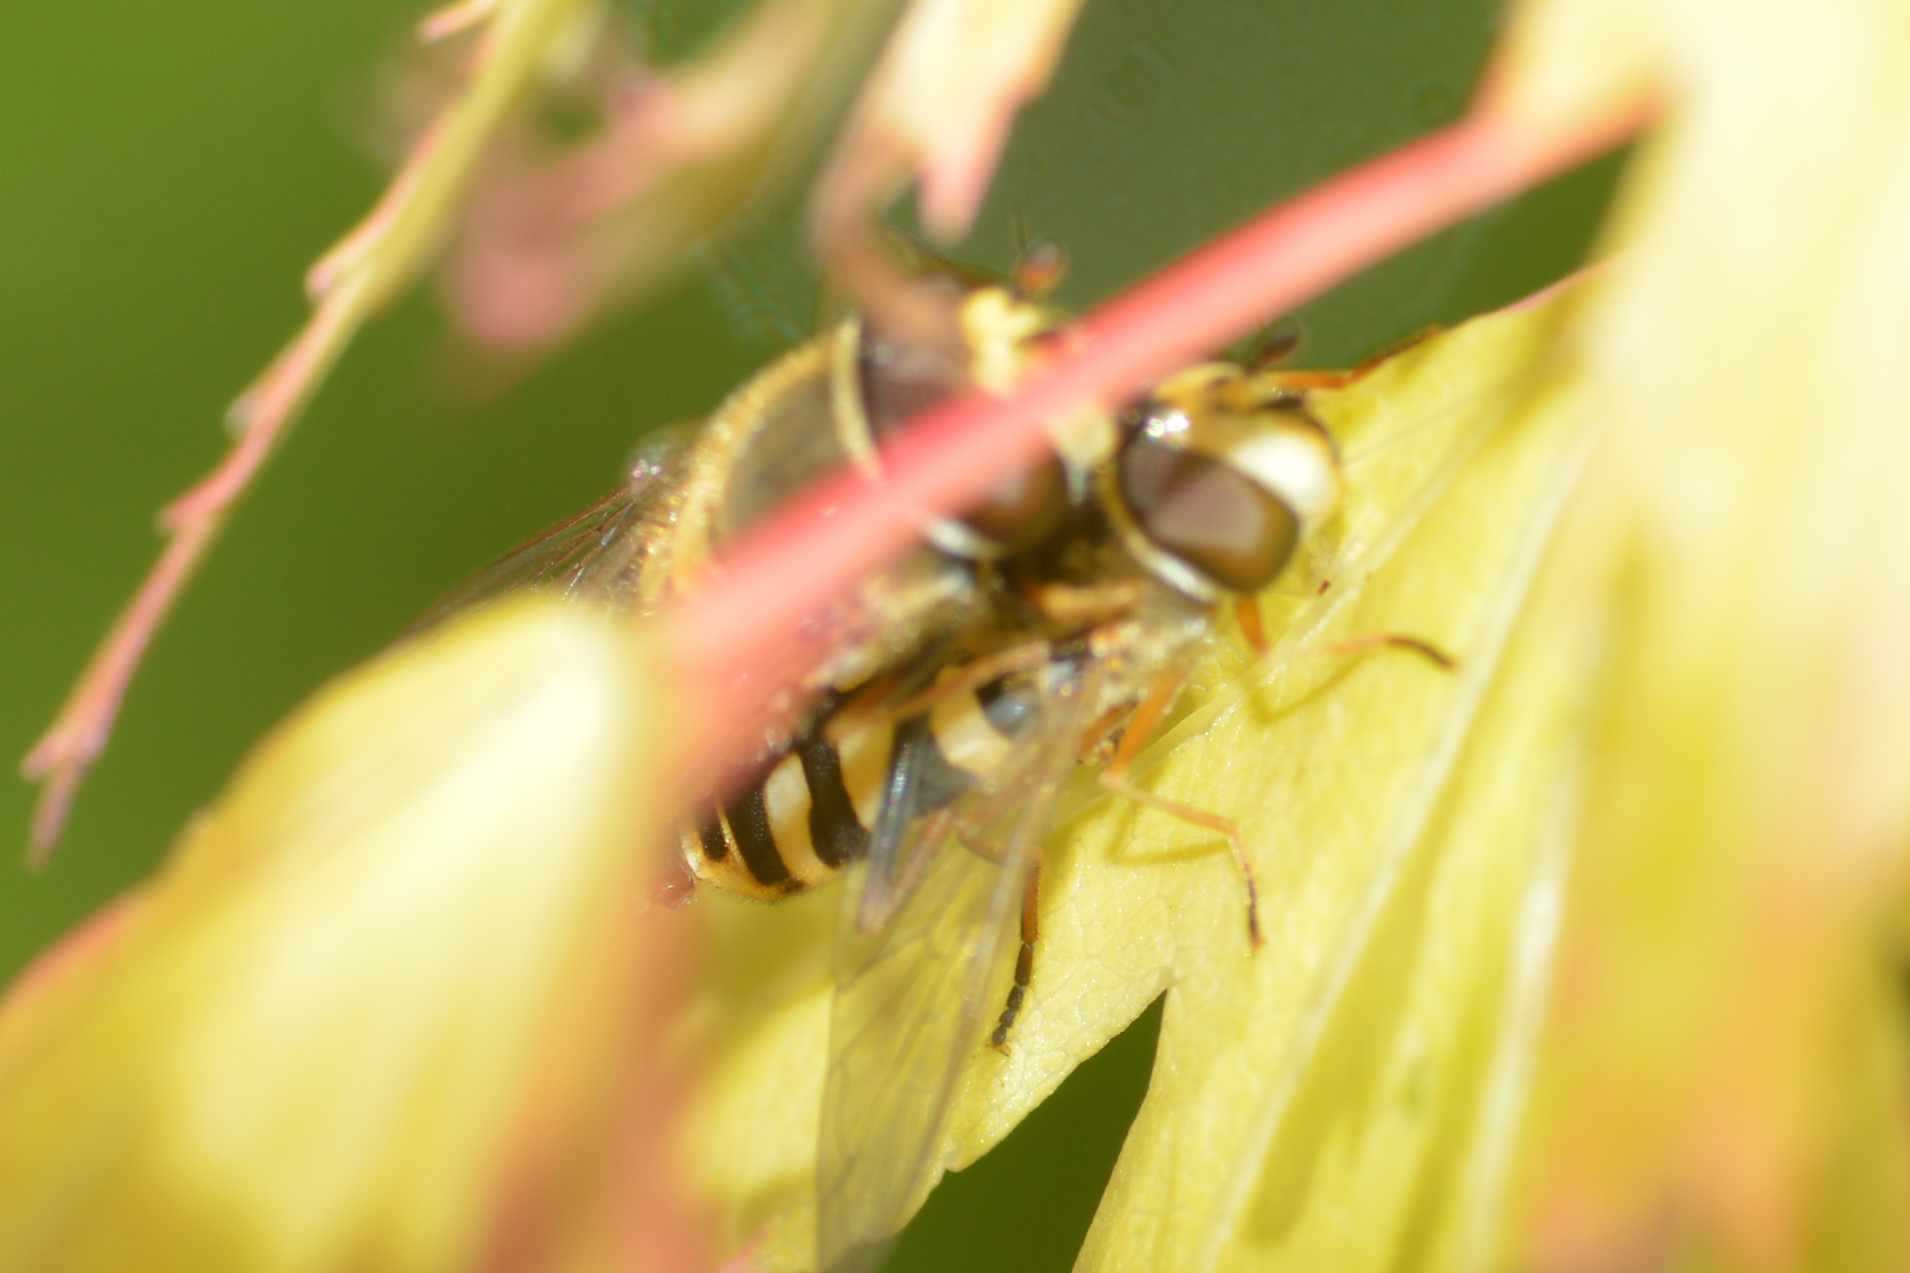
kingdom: Animalia
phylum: Arthropoda
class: Insecta
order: Diptera
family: Syrphidae
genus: Eupeodes
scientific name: Eupeodes corollae
